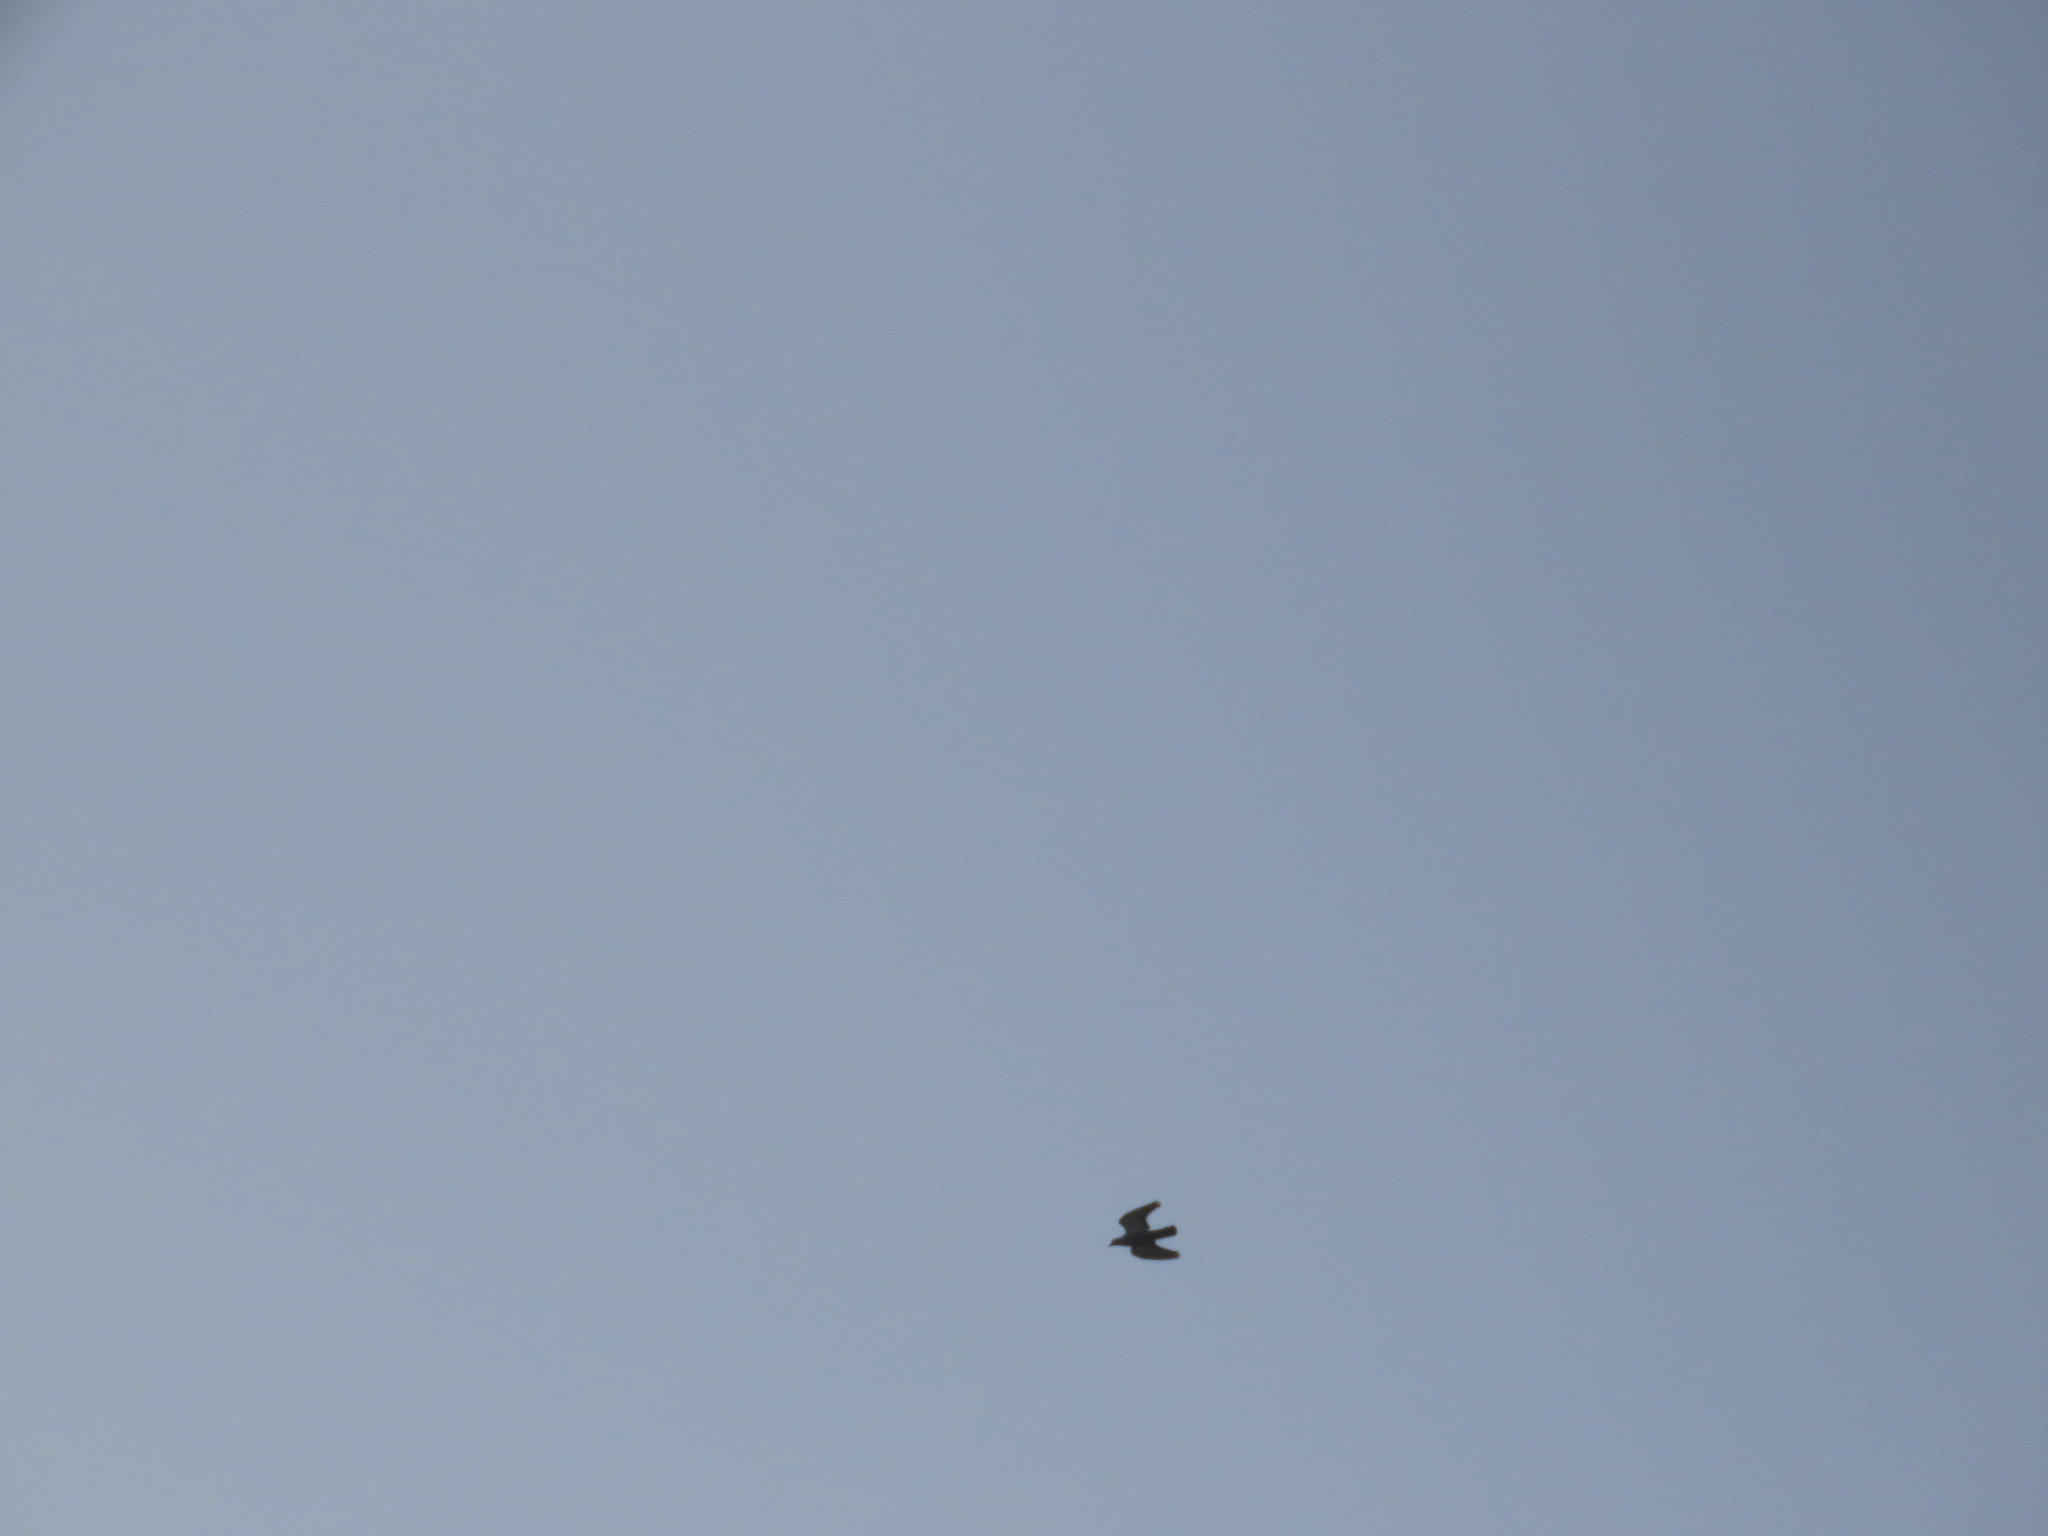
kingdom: Animalia
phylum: Chordata
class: Aves
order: Columbiformes
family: Columbidae
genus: Columba
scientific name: Columba livia
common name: Rock pigeon
